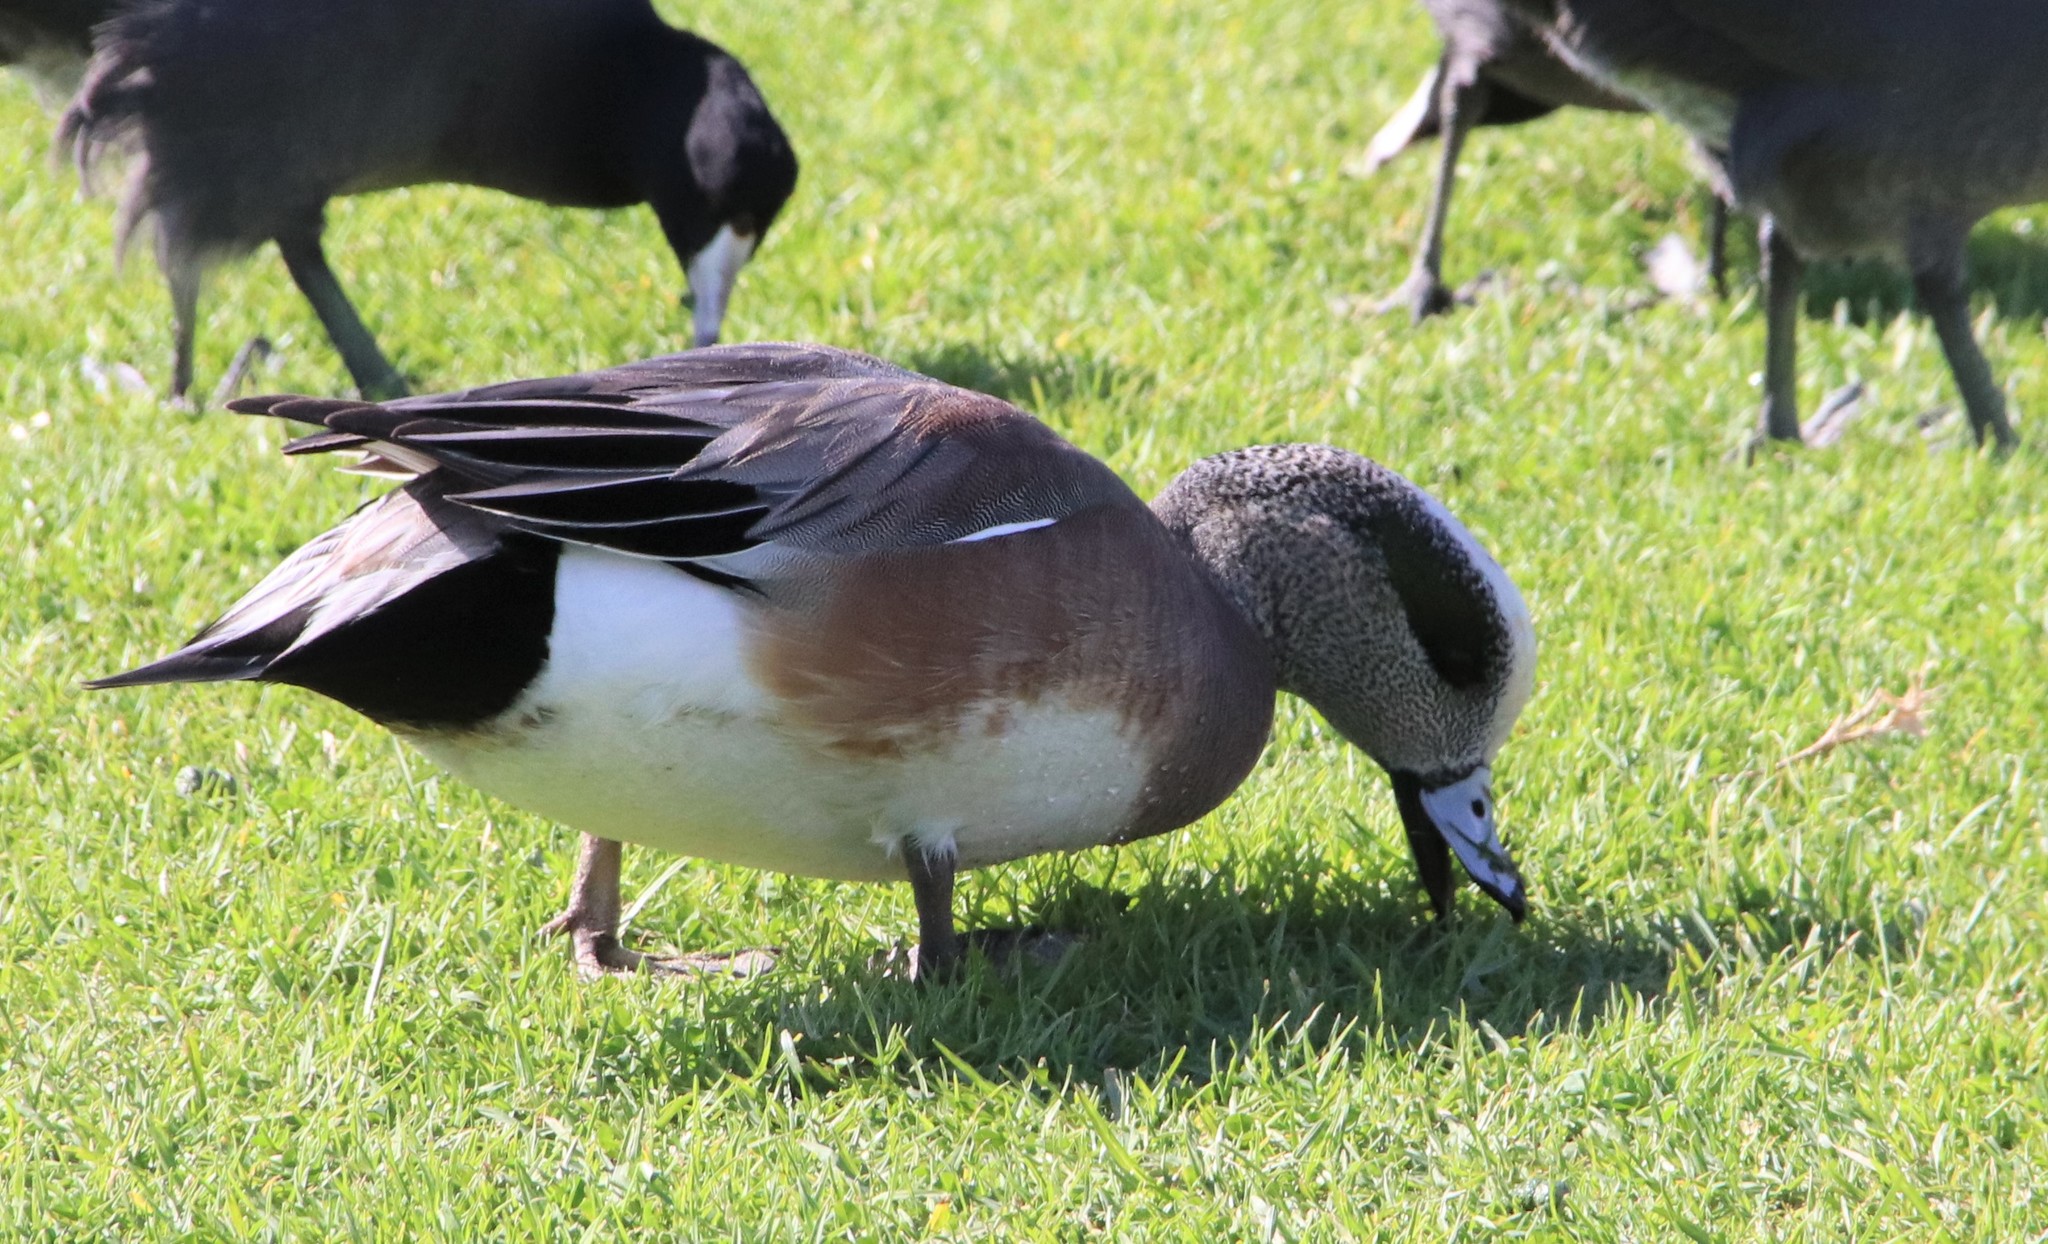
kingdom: Animalia
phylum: Chordata
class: Aves
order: Anseriformes
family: Anatidae
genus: Mareca
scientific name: Mareca americana
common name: American wigeon
